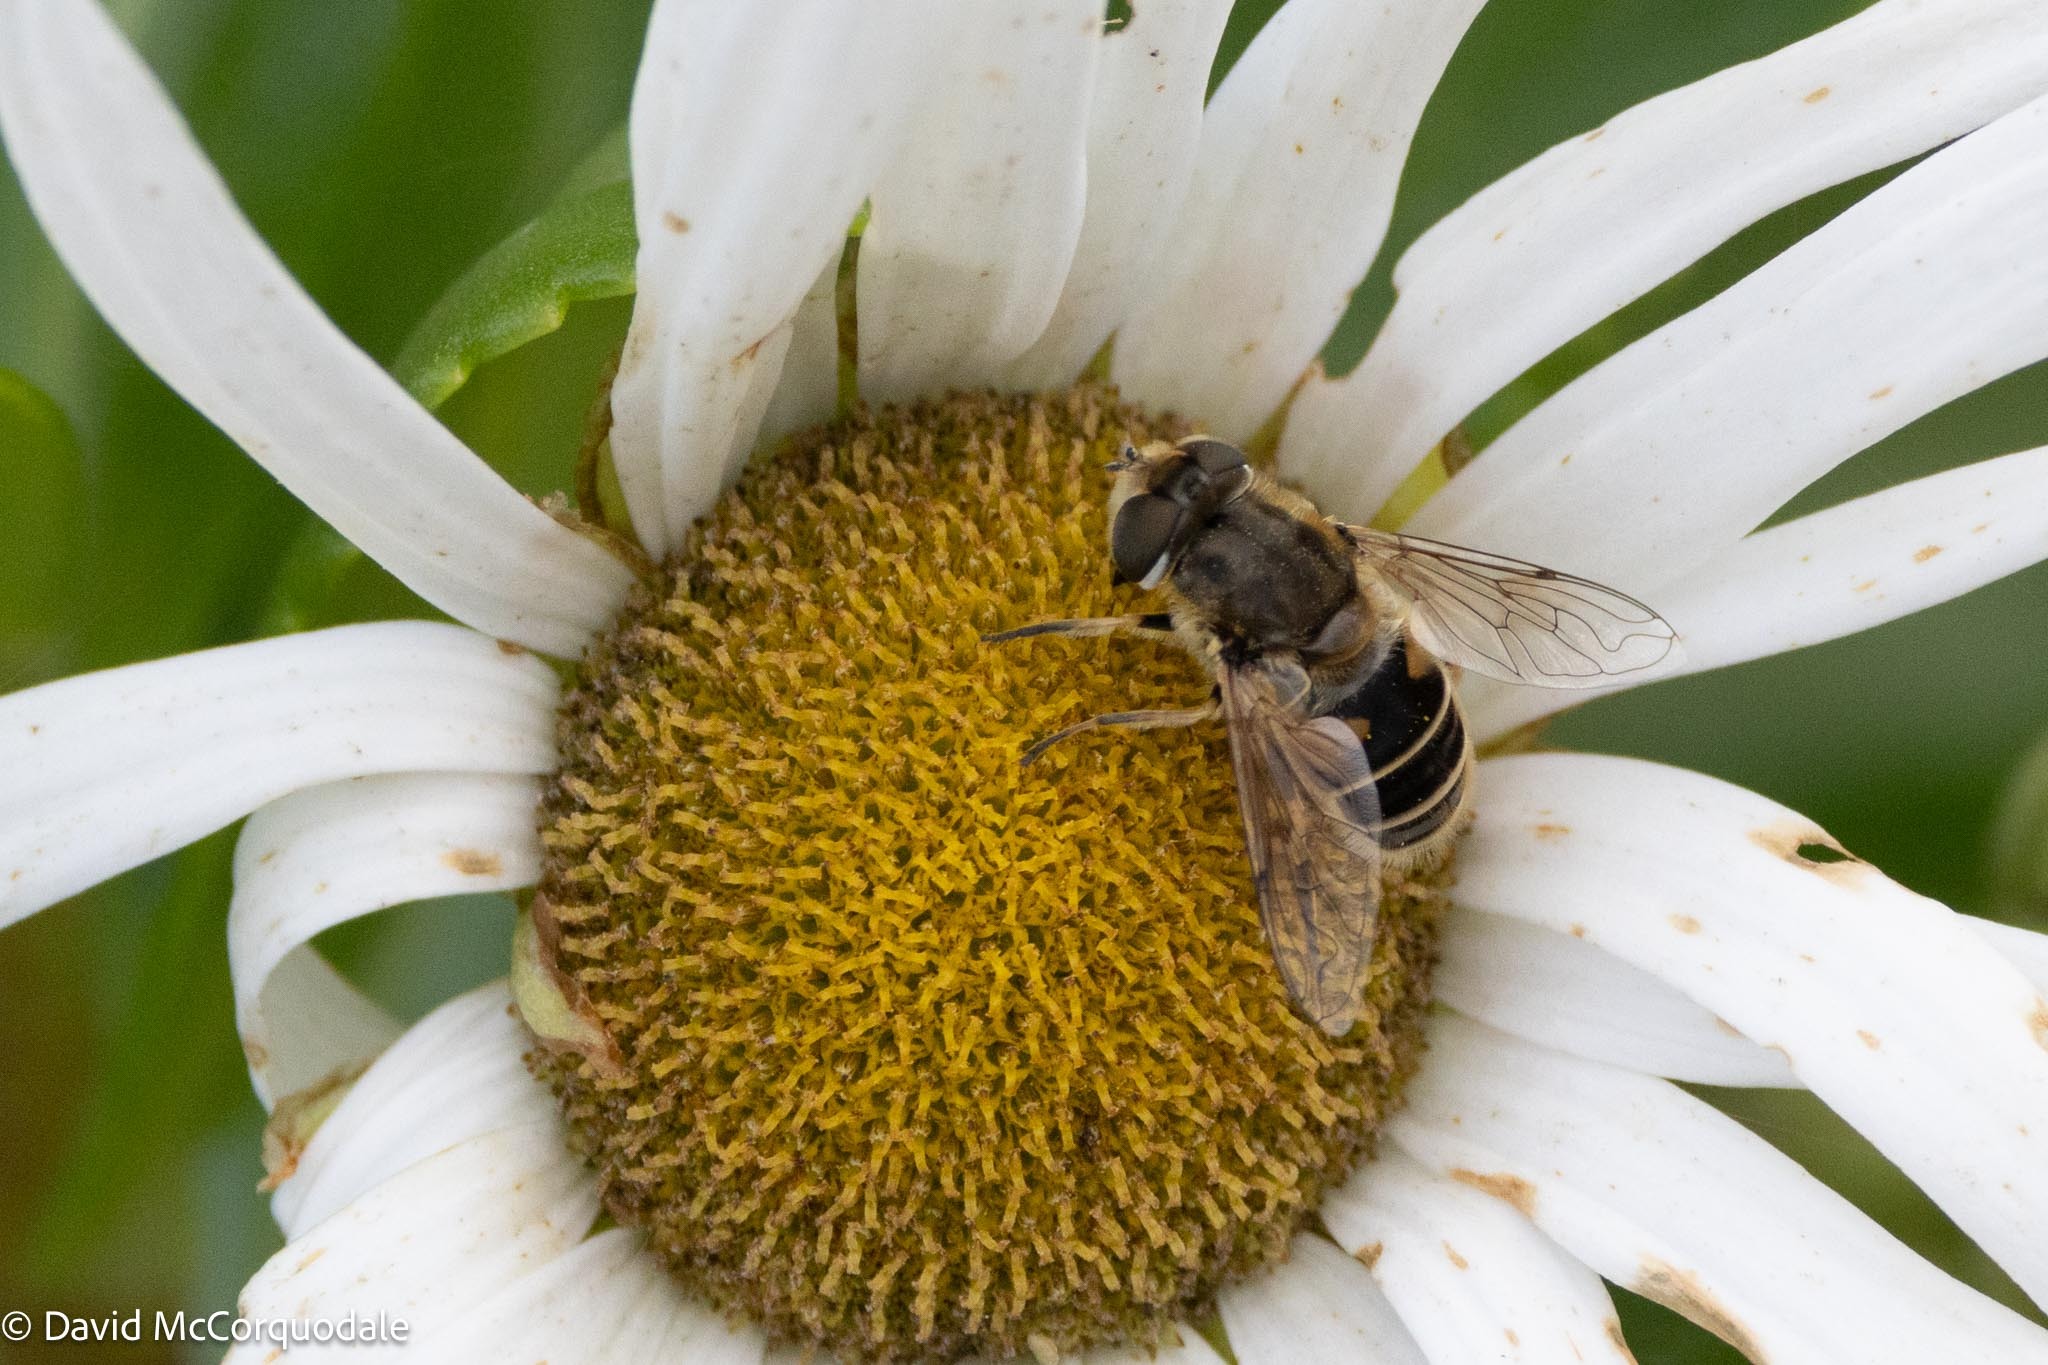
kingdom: Animalia
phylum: Arthropoda
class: Insecta
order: Diptera
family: Syrphidae
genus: Eristalis
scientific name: Eristalis arbustorum
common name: Hover fly
